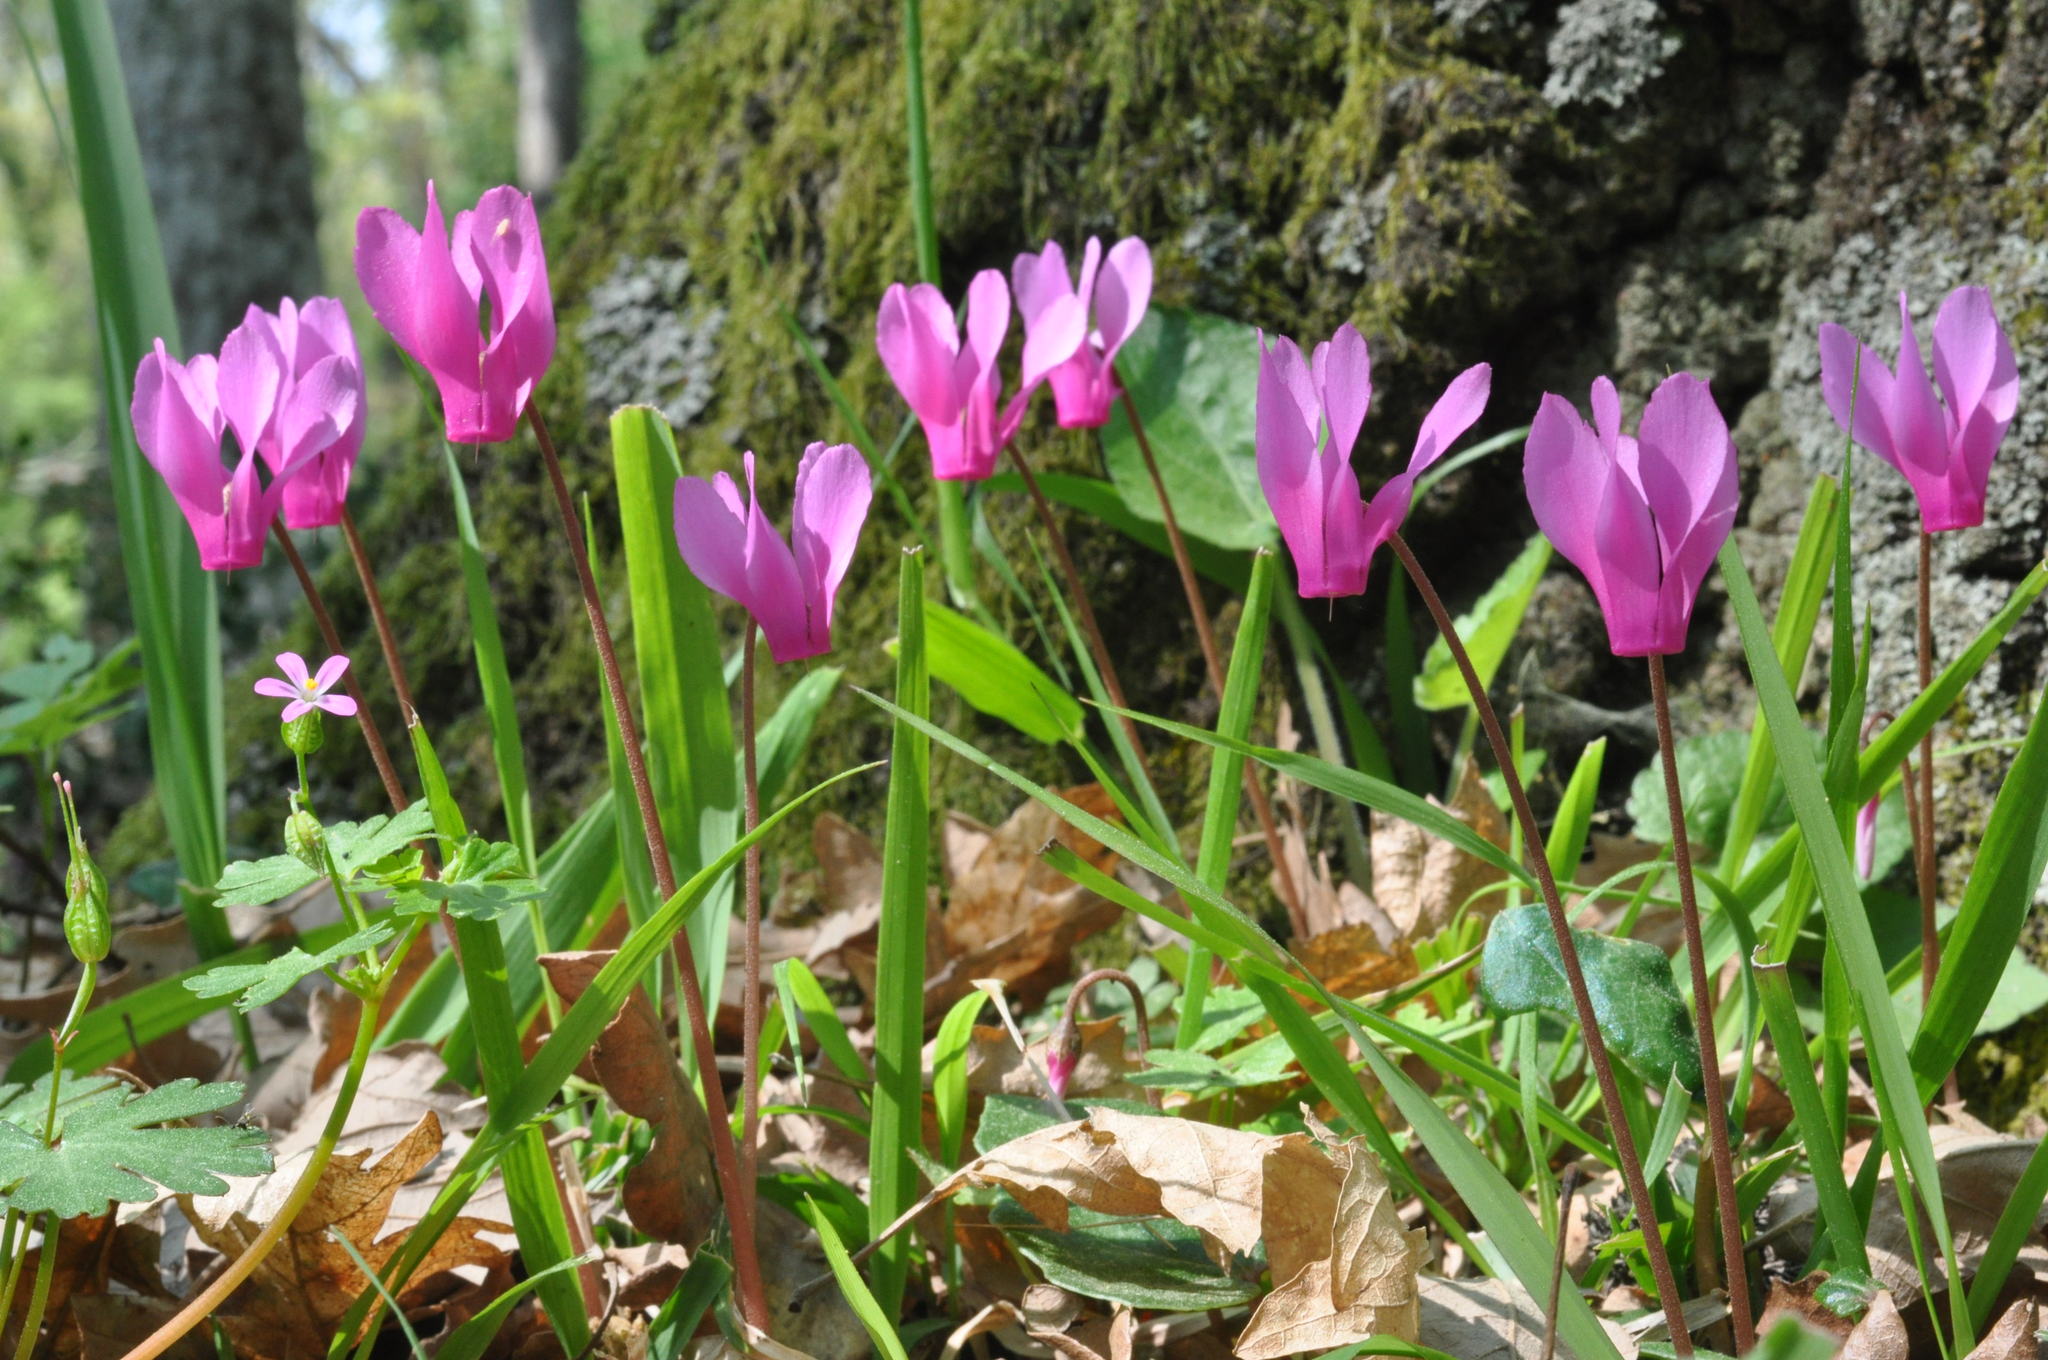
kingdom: Plantae
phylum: Tracheophyta
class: Magnoliopsida
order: Ericales
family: Primulaceae
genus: Cyclamen
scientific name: Cyclamen repandum
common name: Spring sowbread
